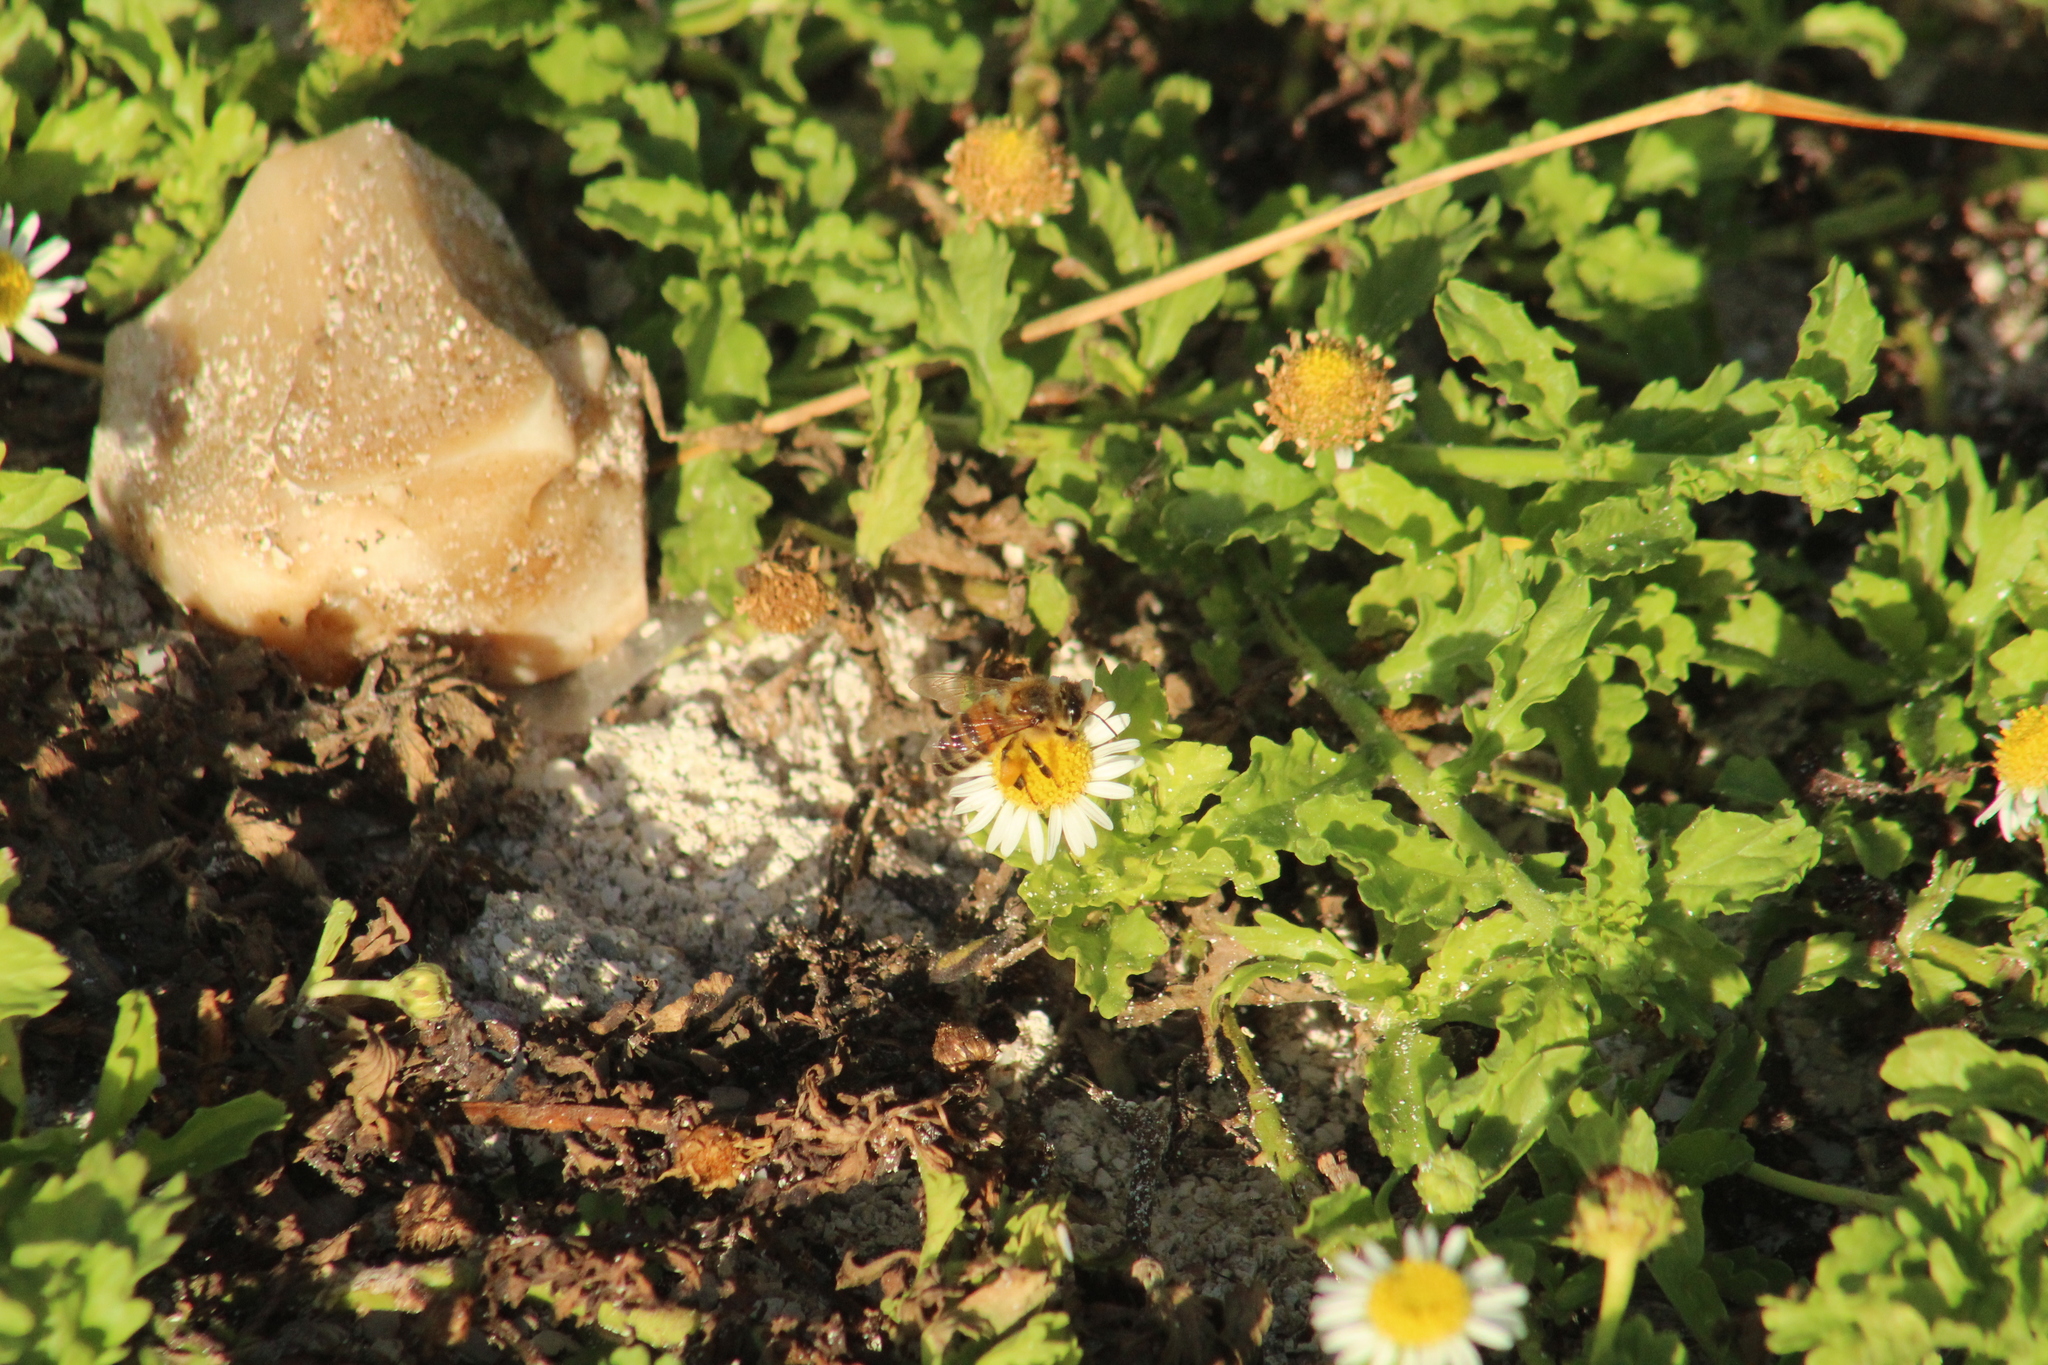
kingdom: Animalia
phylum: Arthropoda
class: Insecta
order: Hymenoptera
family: Apidae
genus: Apis
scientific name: Apis mellifera
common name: Honey bee
